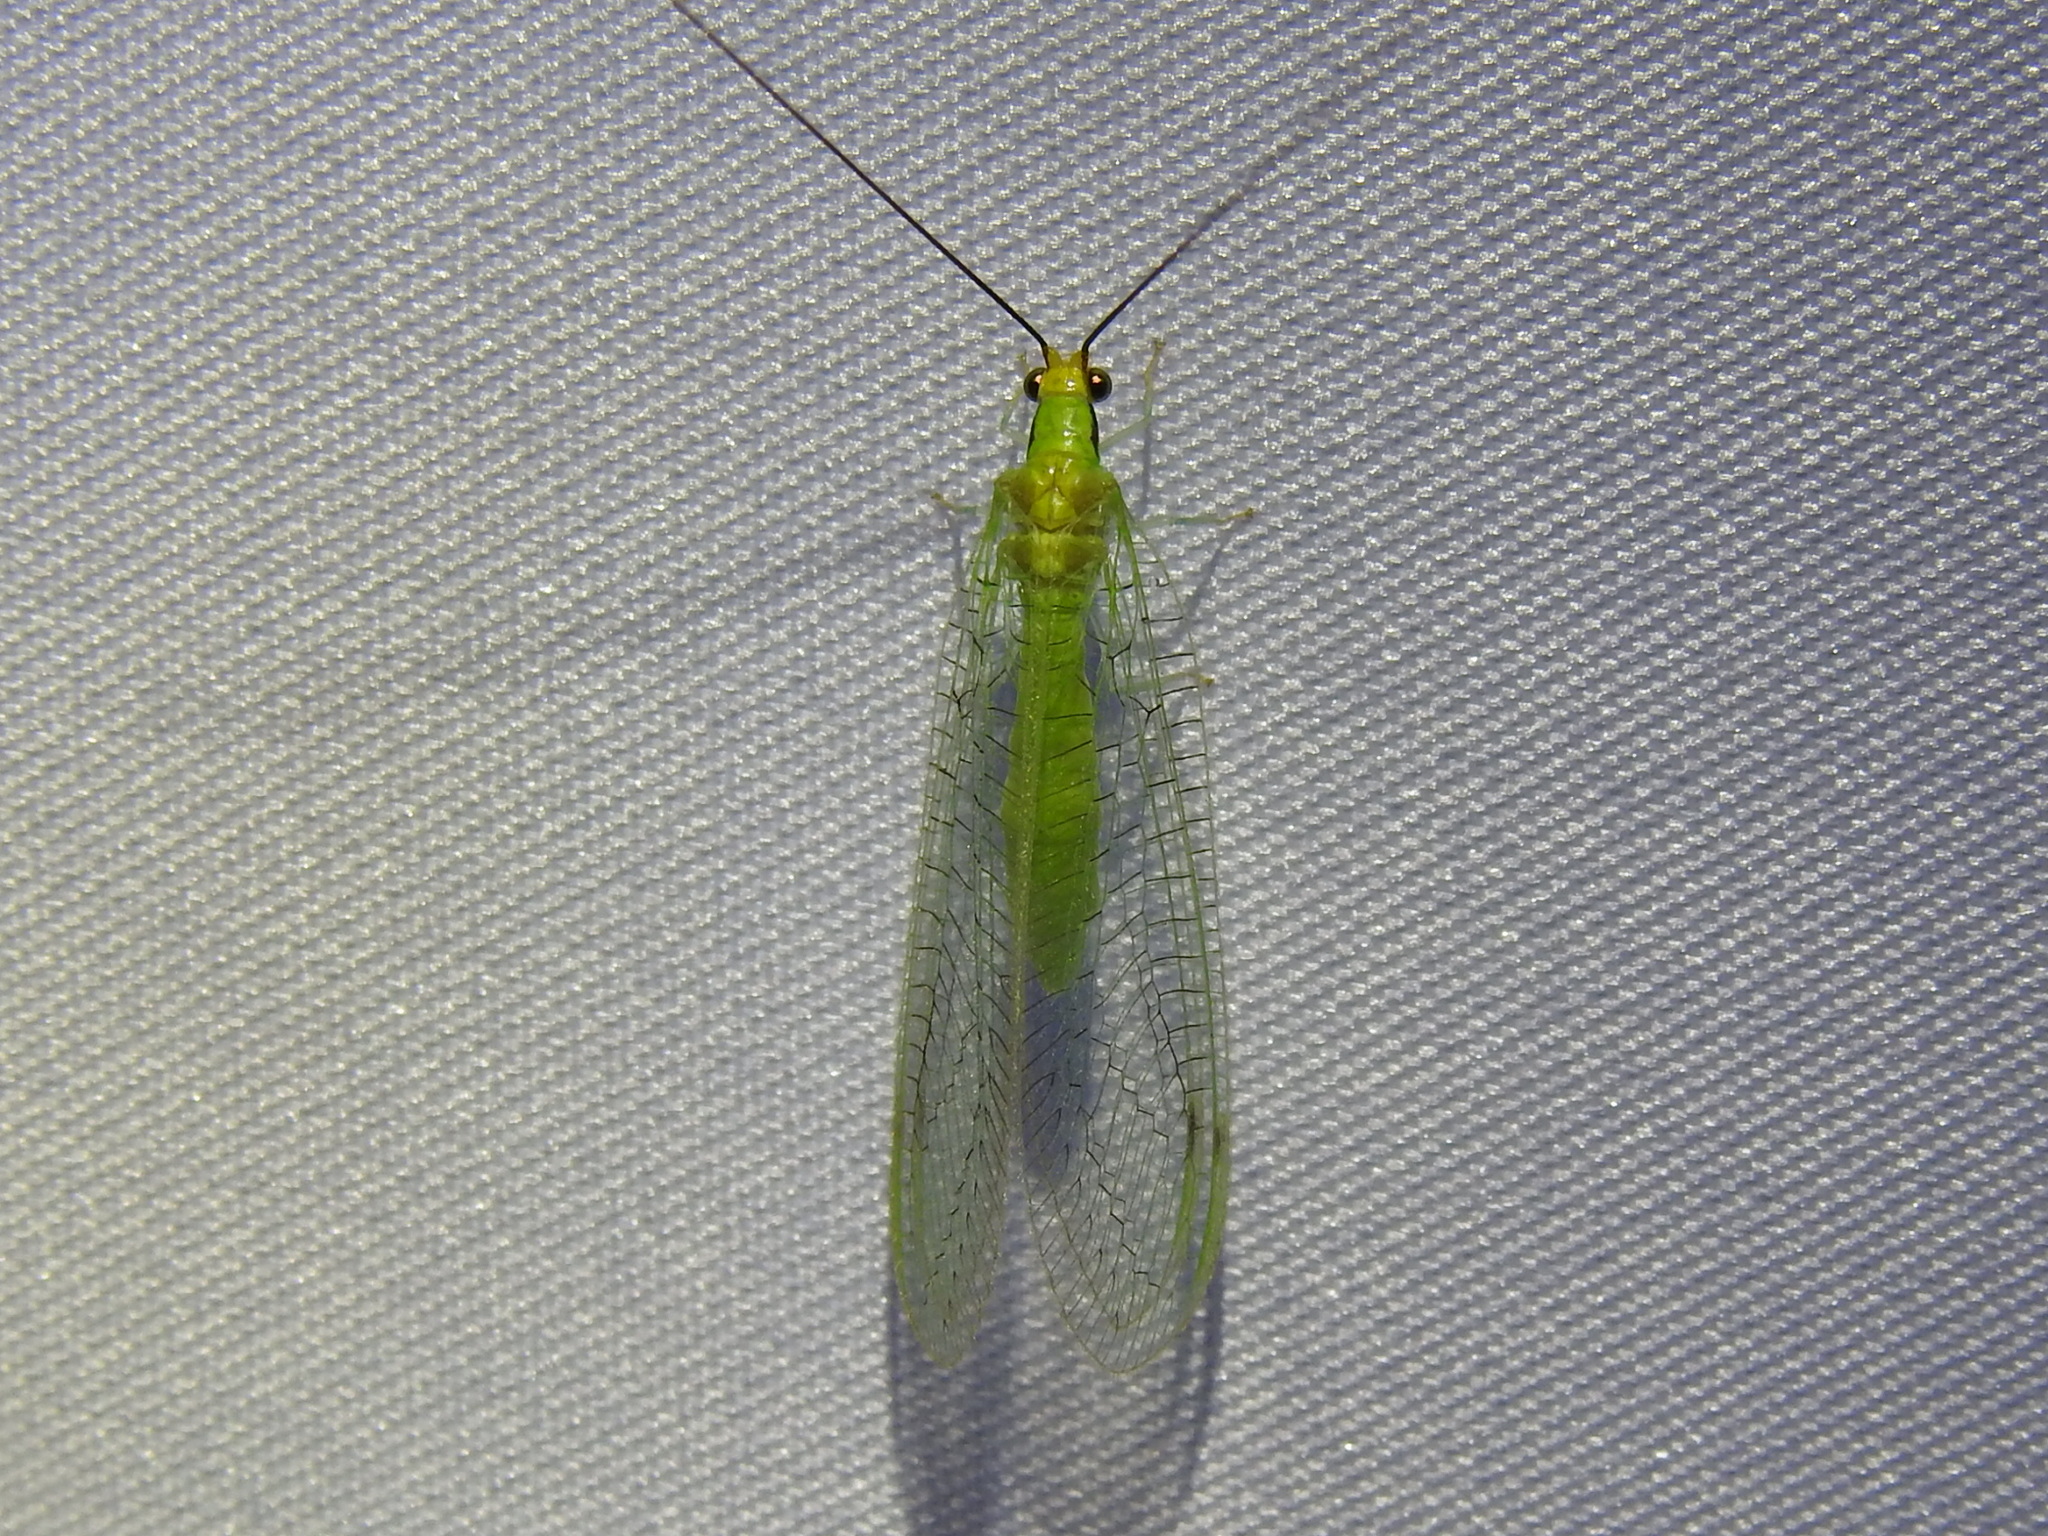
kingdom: Animalia
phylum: Arthropoda
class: Insecta
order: Neuroptera
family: Chrysopidae
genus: Leucochrysa
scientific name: Leucochrysa pavida
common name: Lichen-carrying green lacewing
